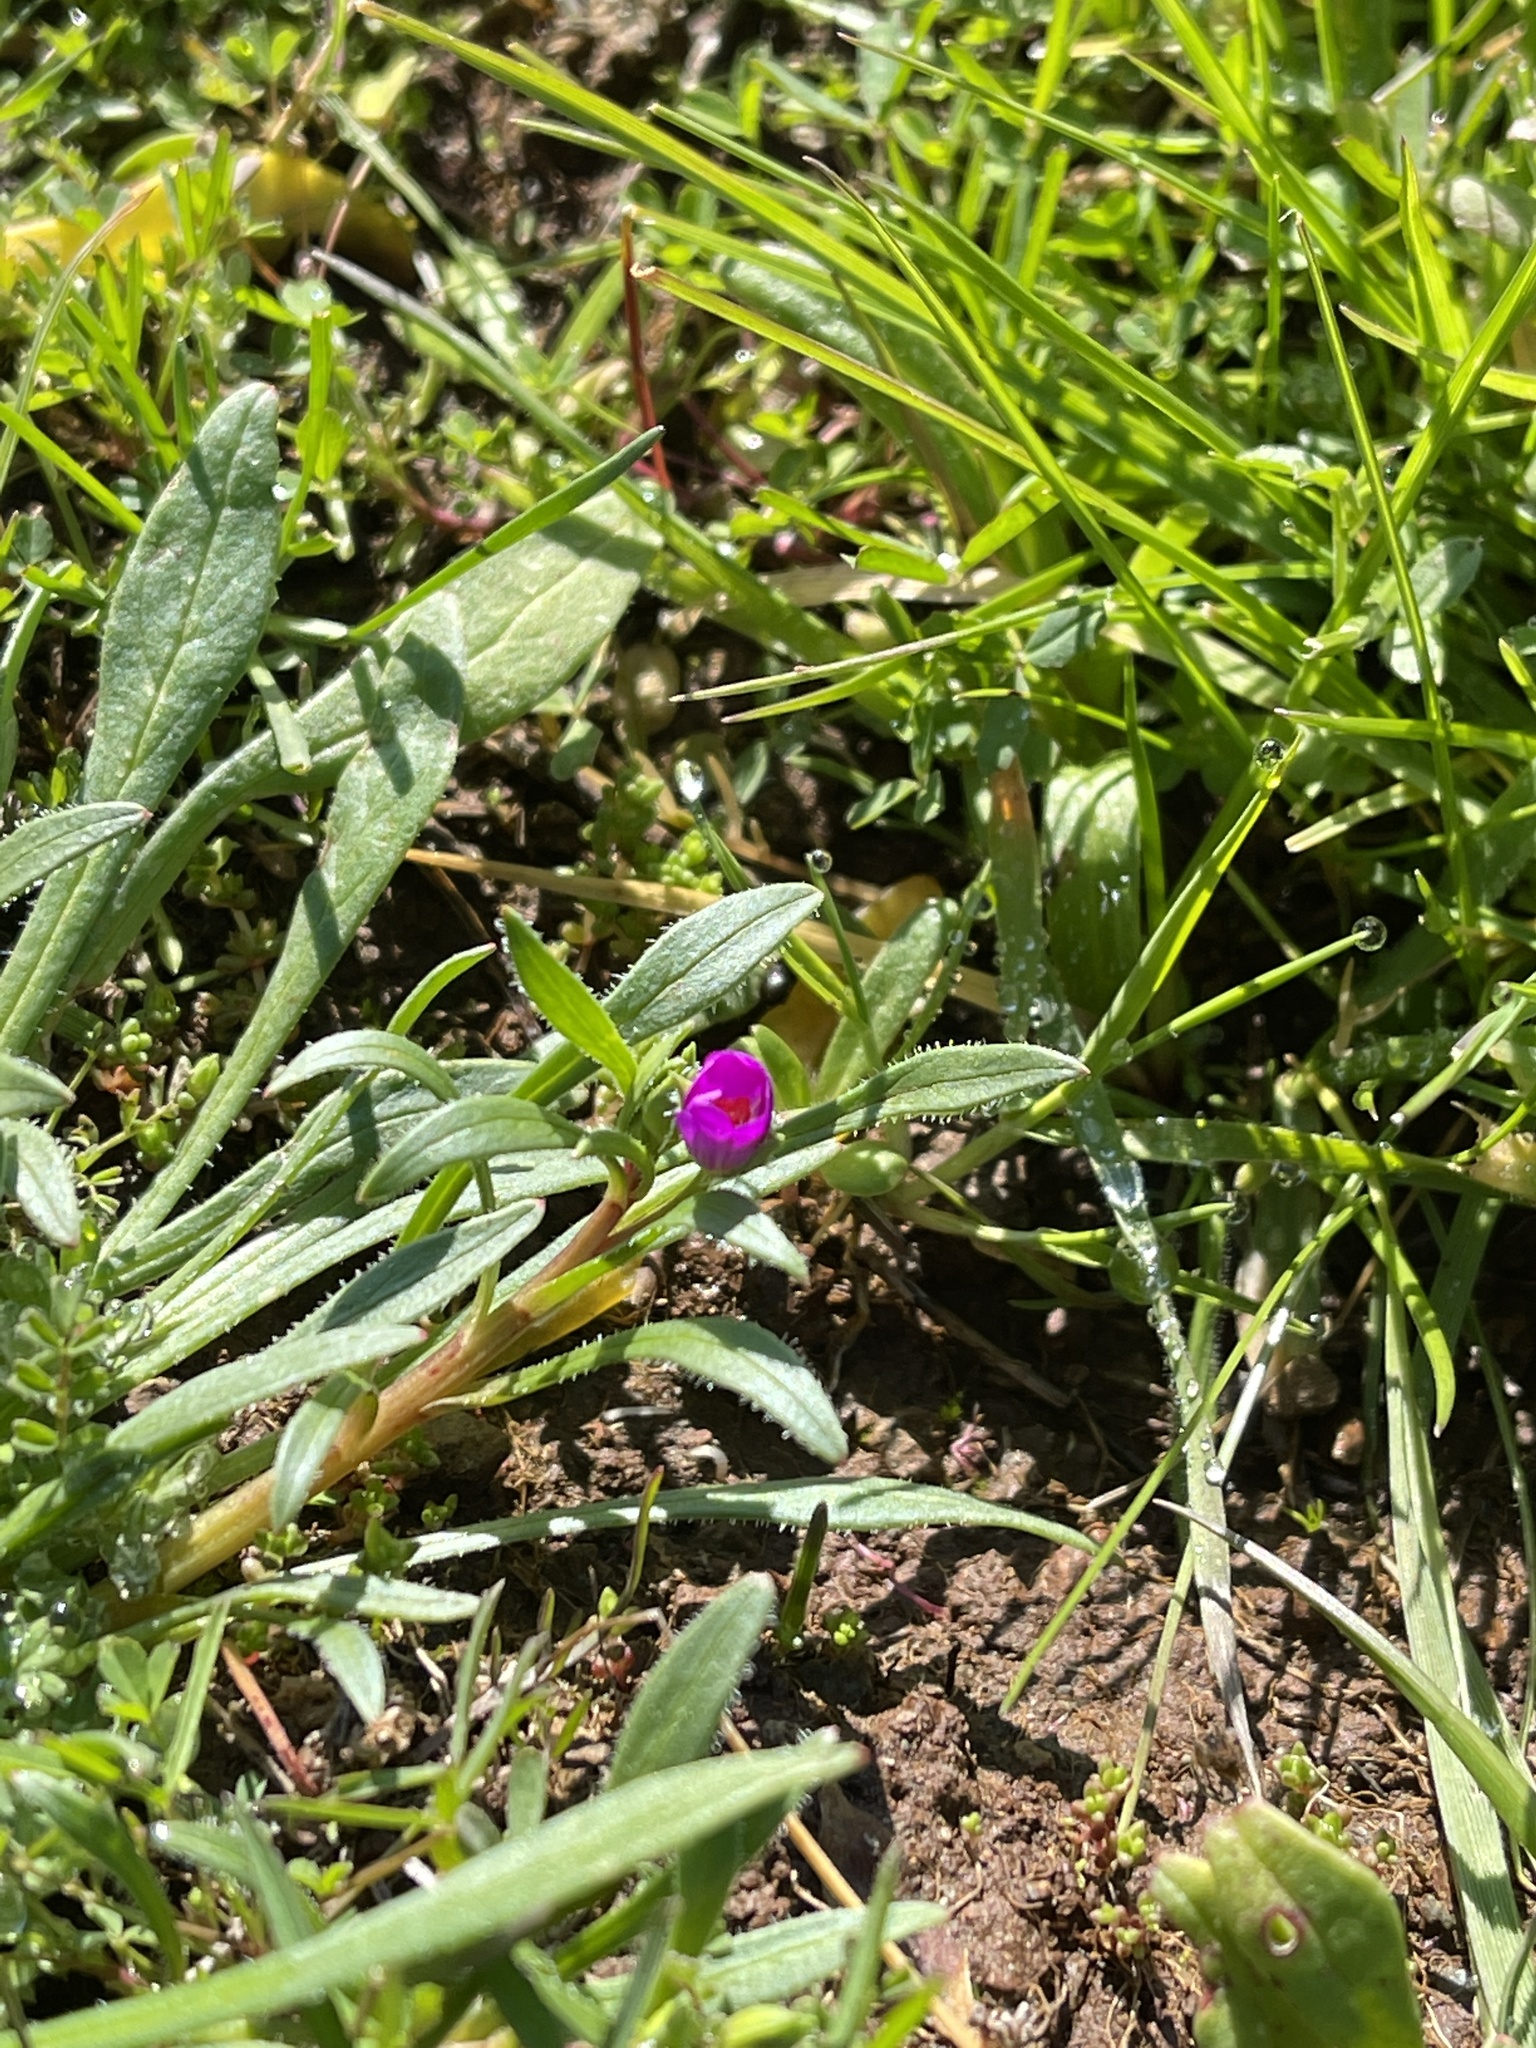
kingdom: Plantae
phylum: Tracheophyta
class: Magnoliopsida
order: Caryophyllales
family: Montiaceae
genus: Calandrinia
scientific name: Calandrinia menziesii
